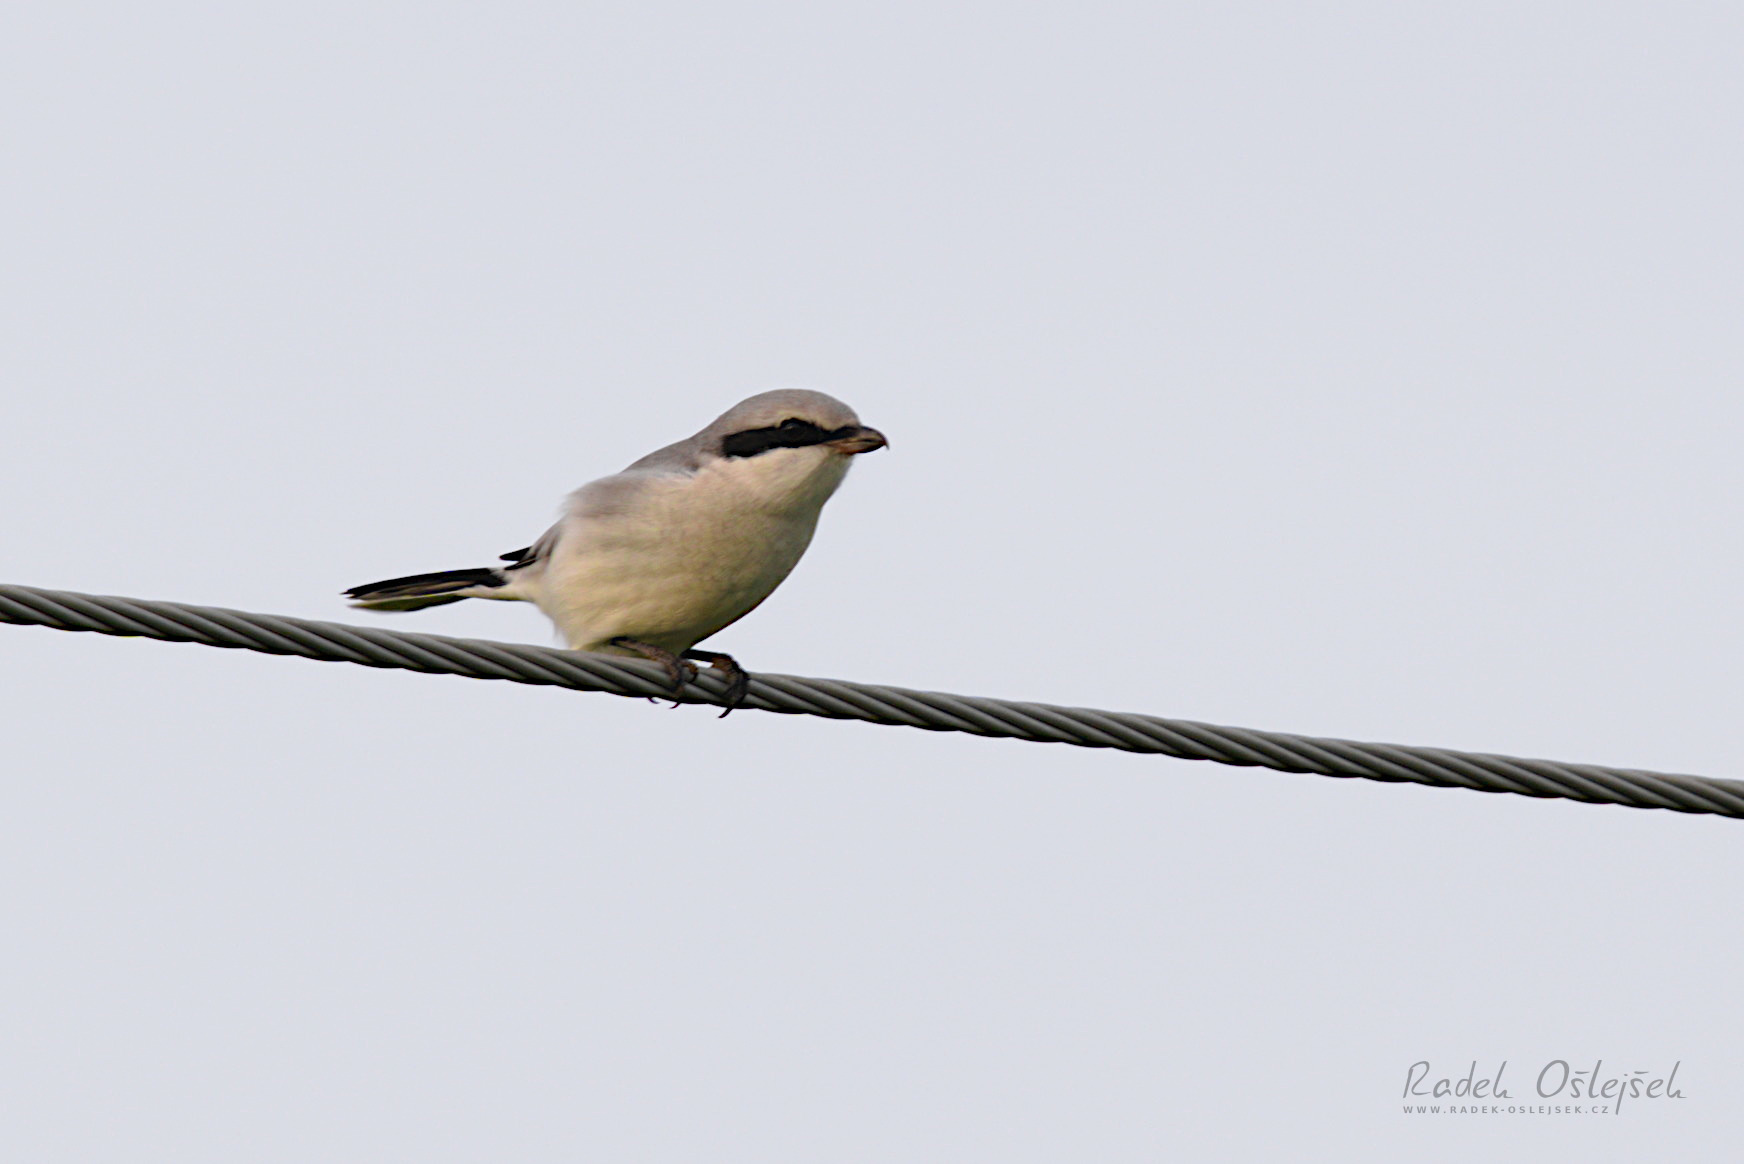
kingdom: Animalia
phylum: Chordata
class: Aves
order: Passeriformes
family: Laniidae
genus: Lanius
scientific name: Lanius excubitor
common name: Great grey shrike
